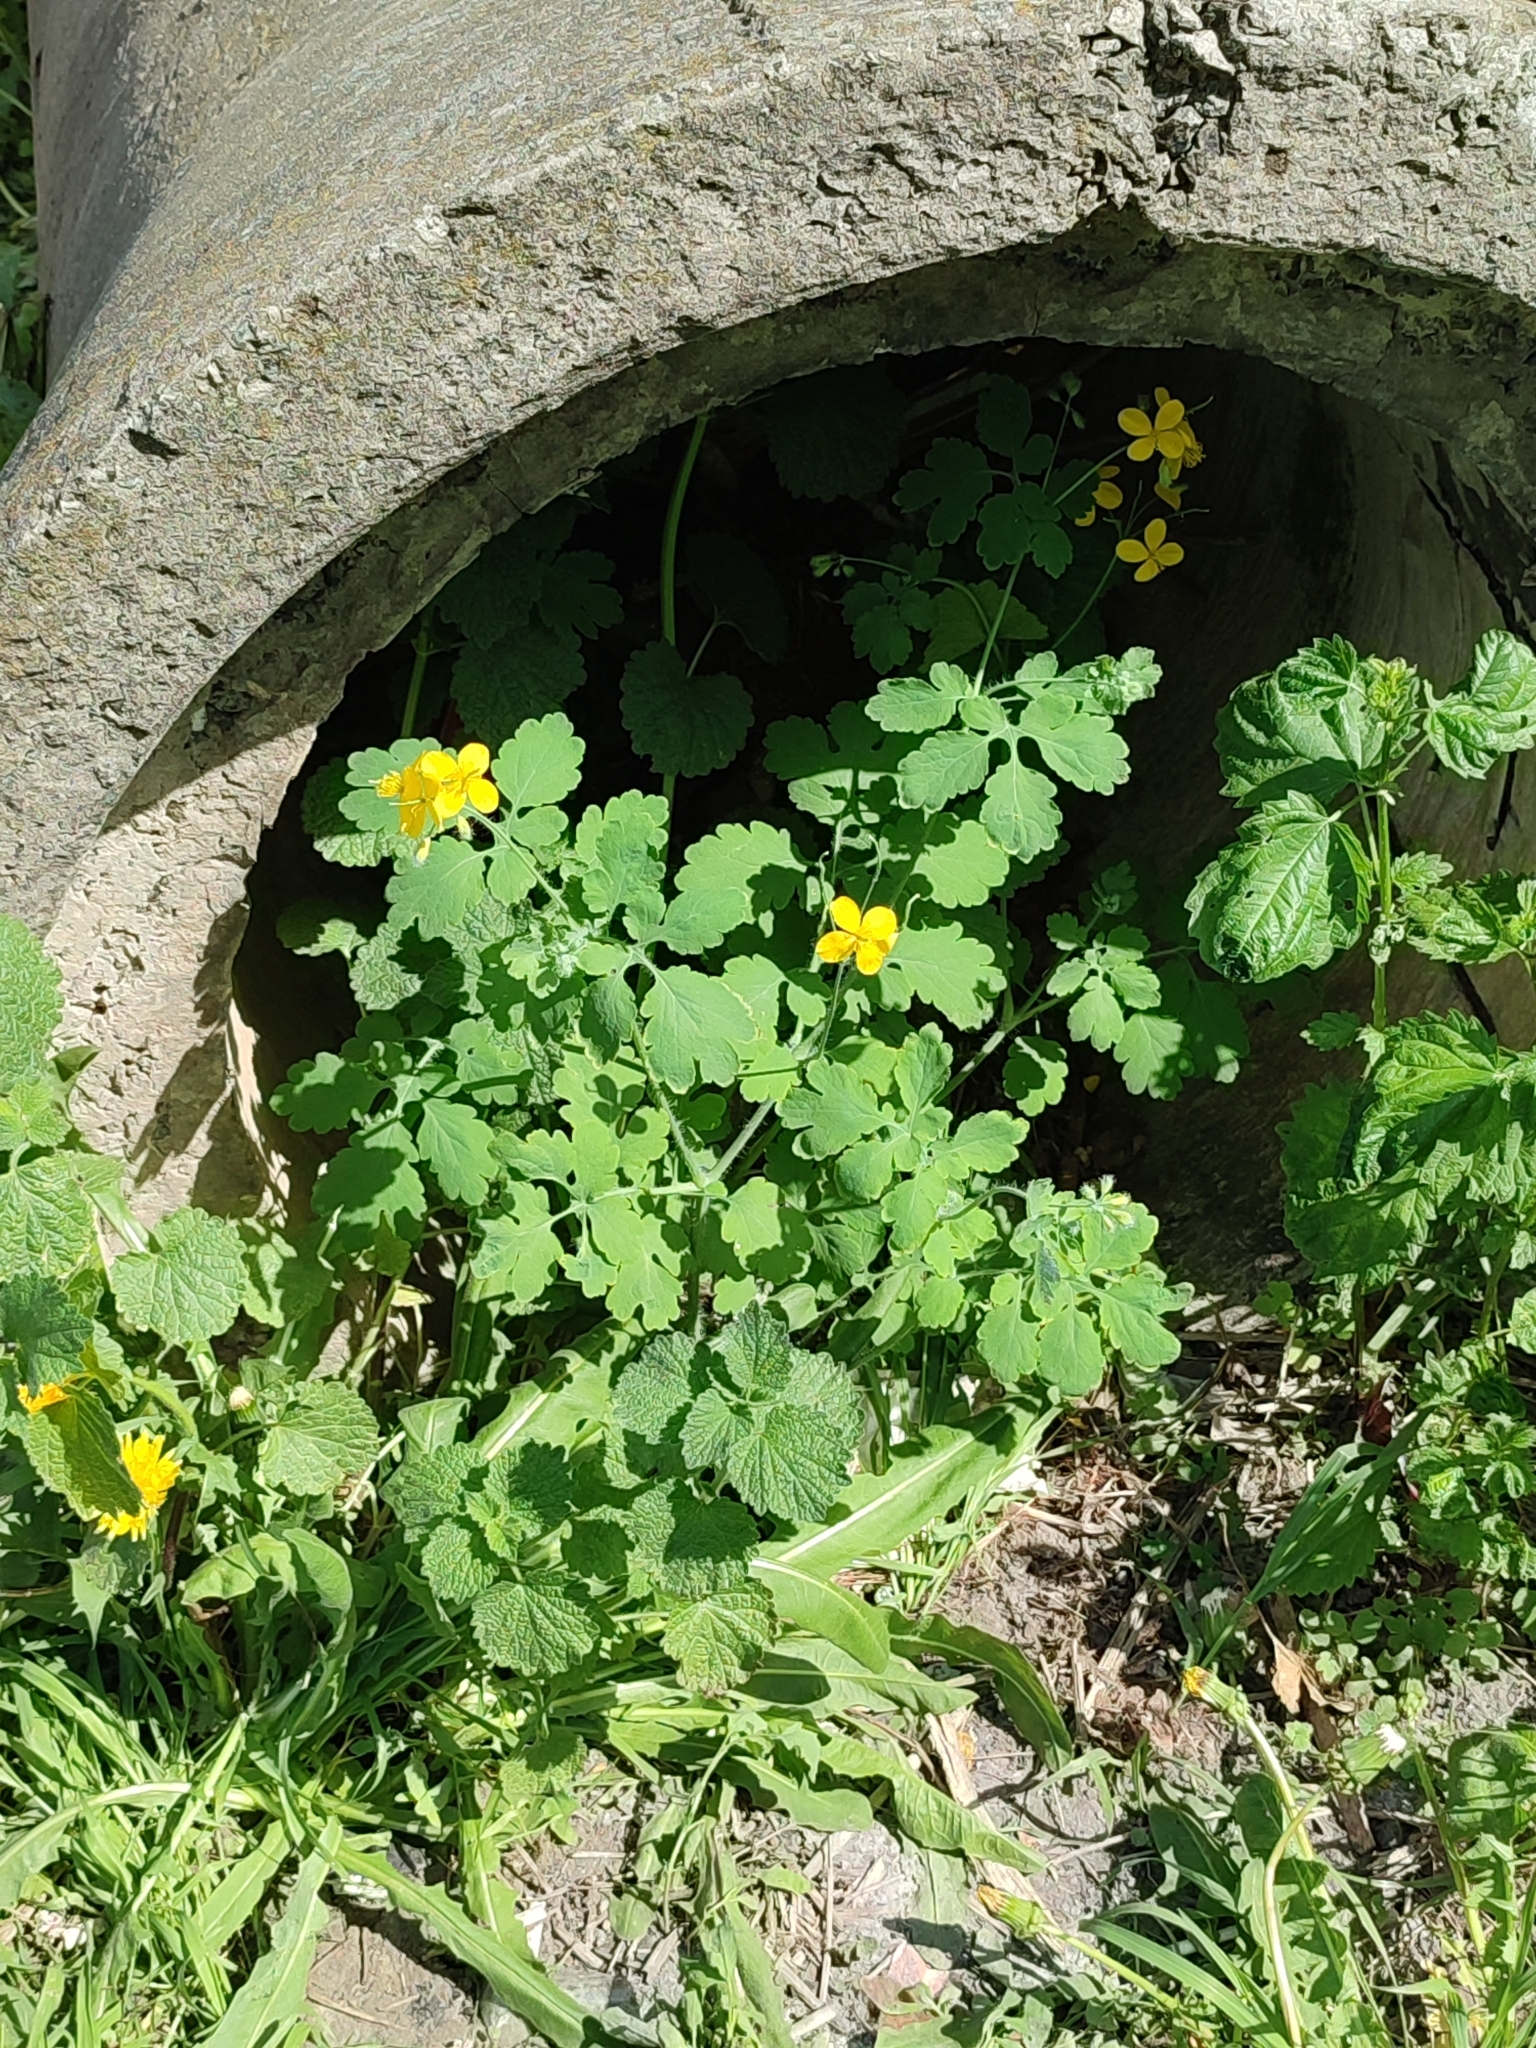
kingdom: Plantae
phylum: Tracheophyta
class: Magnoliopsida
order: Ranunculales
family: Papaveraceae
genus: Chelidonium
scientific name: Chelidonium majus
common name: Greater celandine
